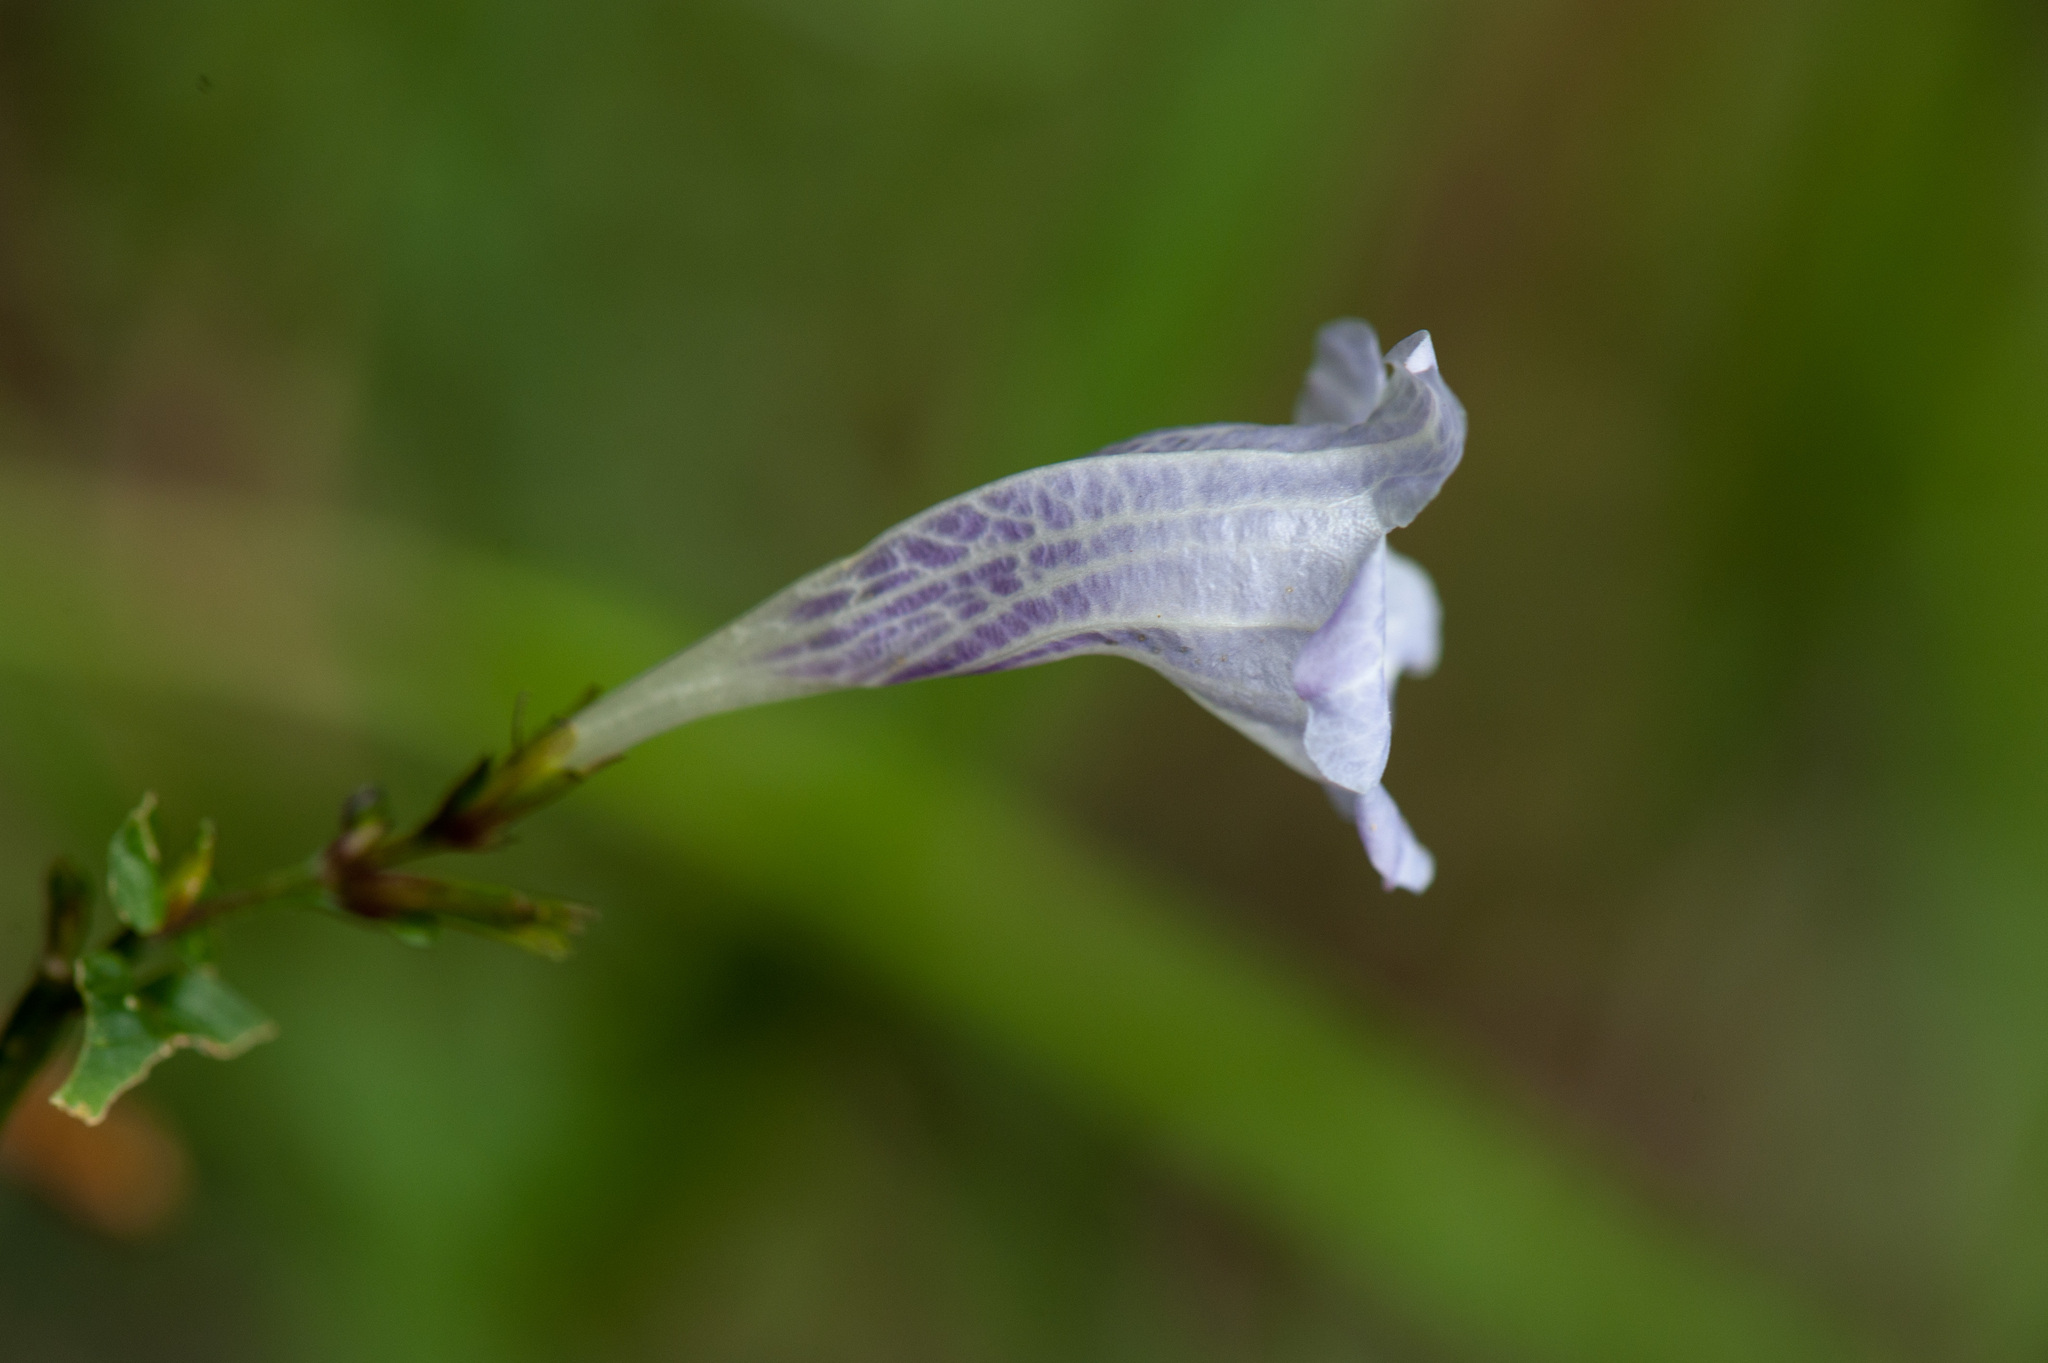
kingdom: Plantae
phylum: Tracheophyta
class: Magnoliopsida
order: Lamiales
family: Acanthaceae
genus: Strobilanthes
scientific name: Strobilanthes flexicaulis
